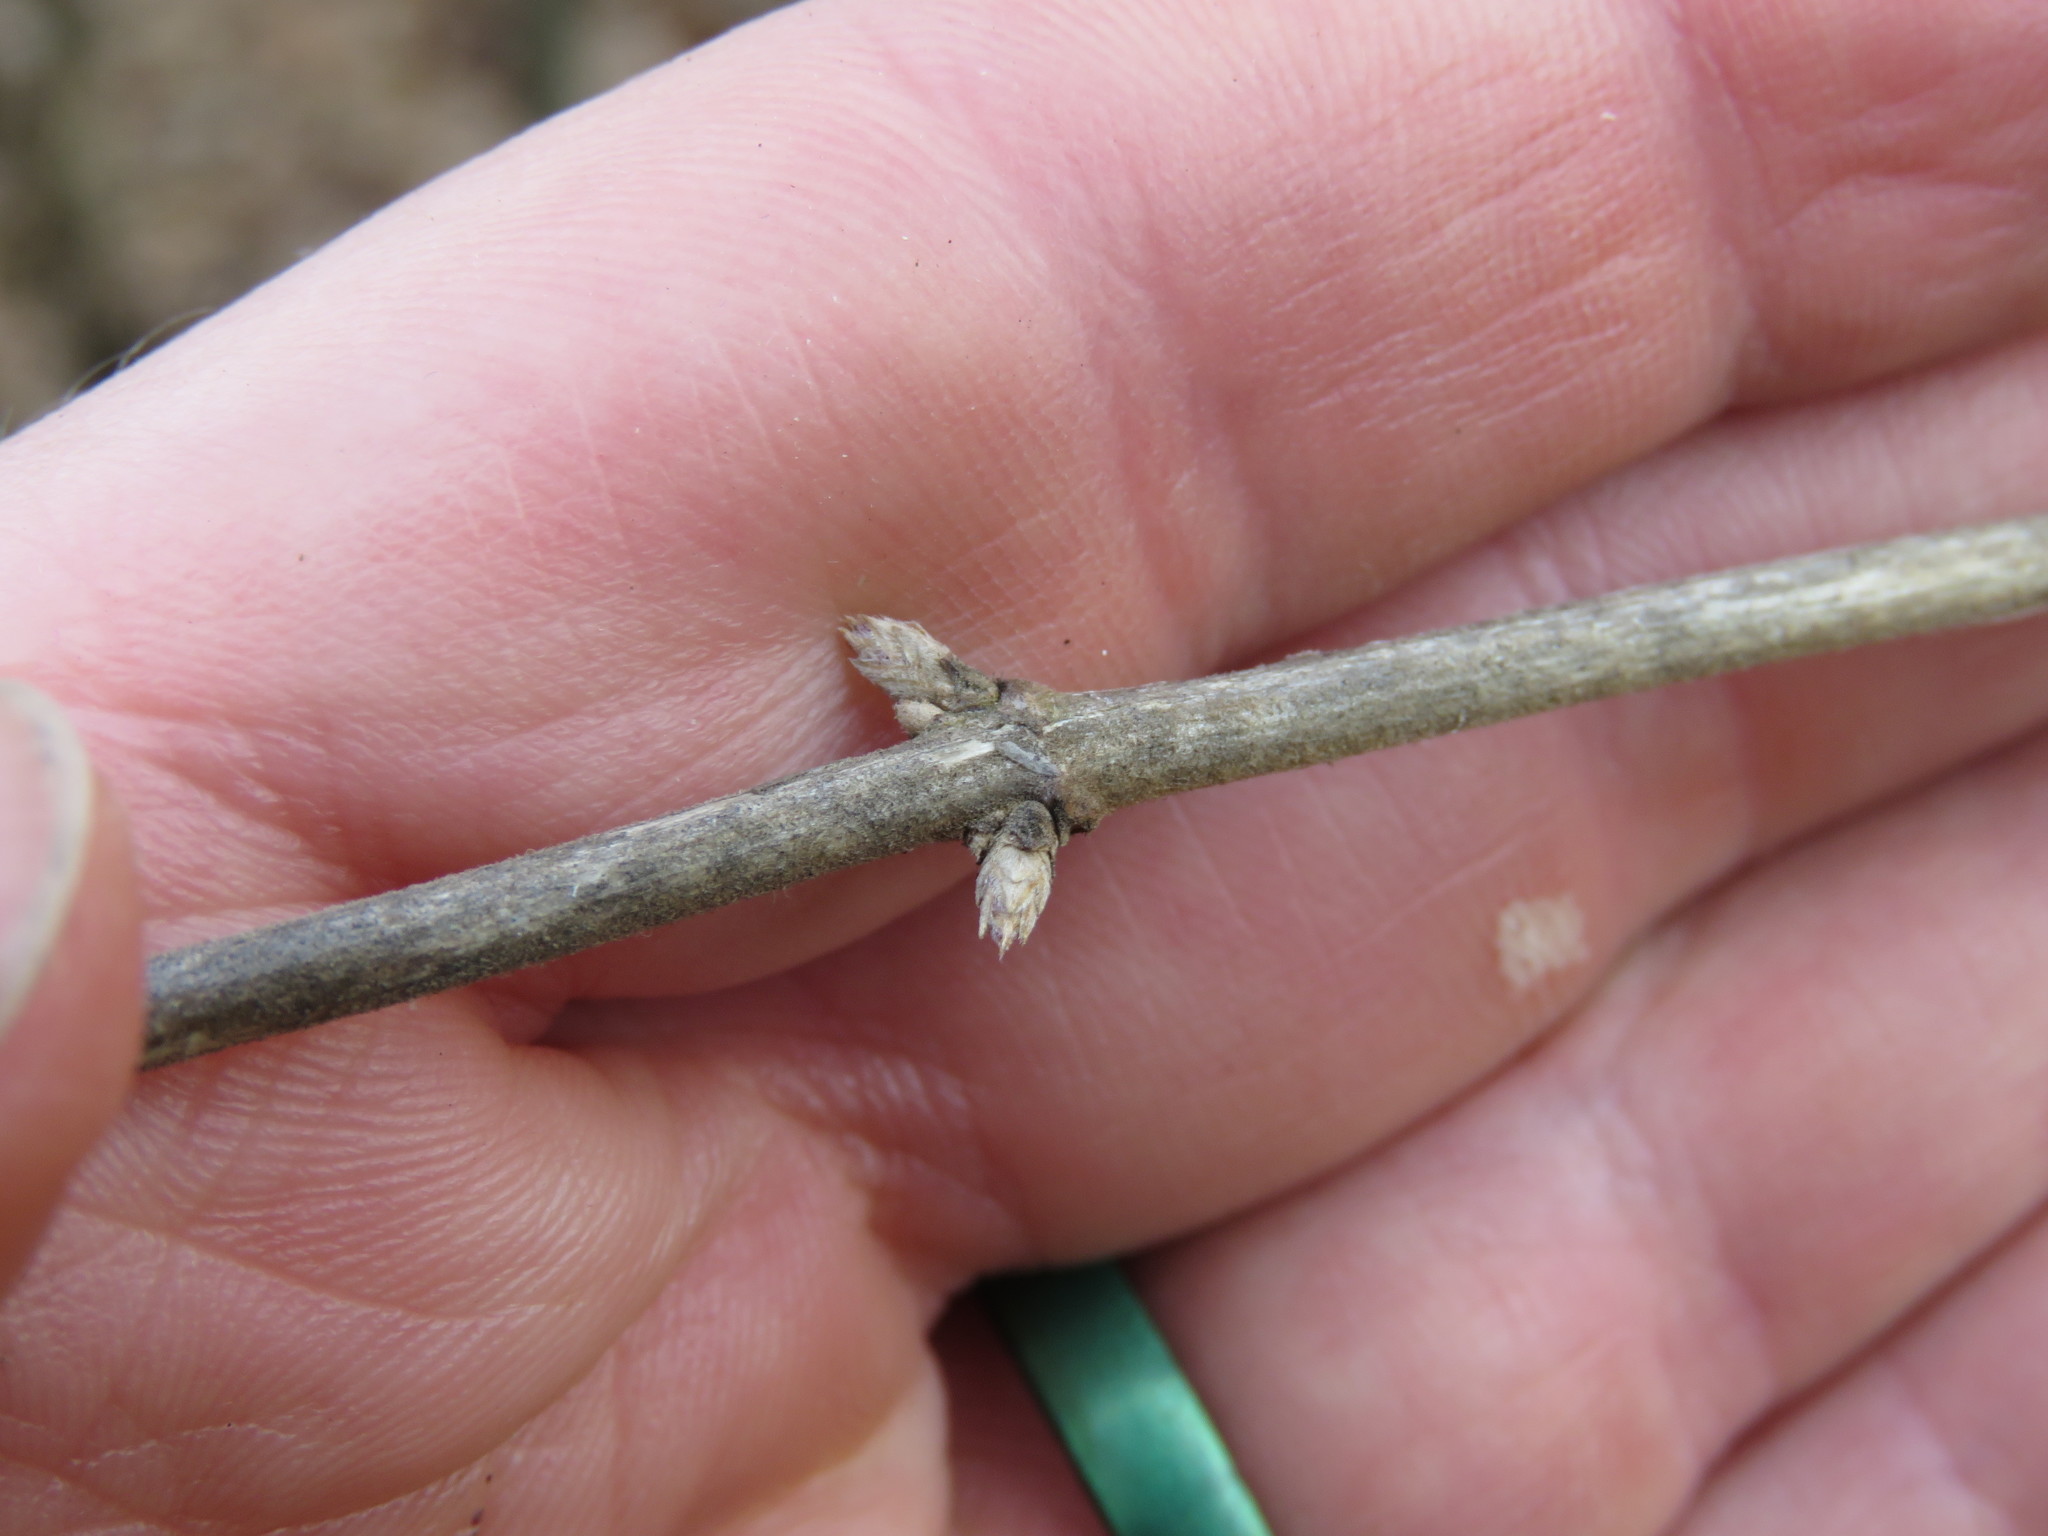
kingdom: Plantae
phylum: Tracheophyta
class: Magnoliopsida
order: Dipsacales
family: Caprifoliaceae
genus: Lonicera
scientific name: Lonicera maackii
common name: Amur honeysuckle
